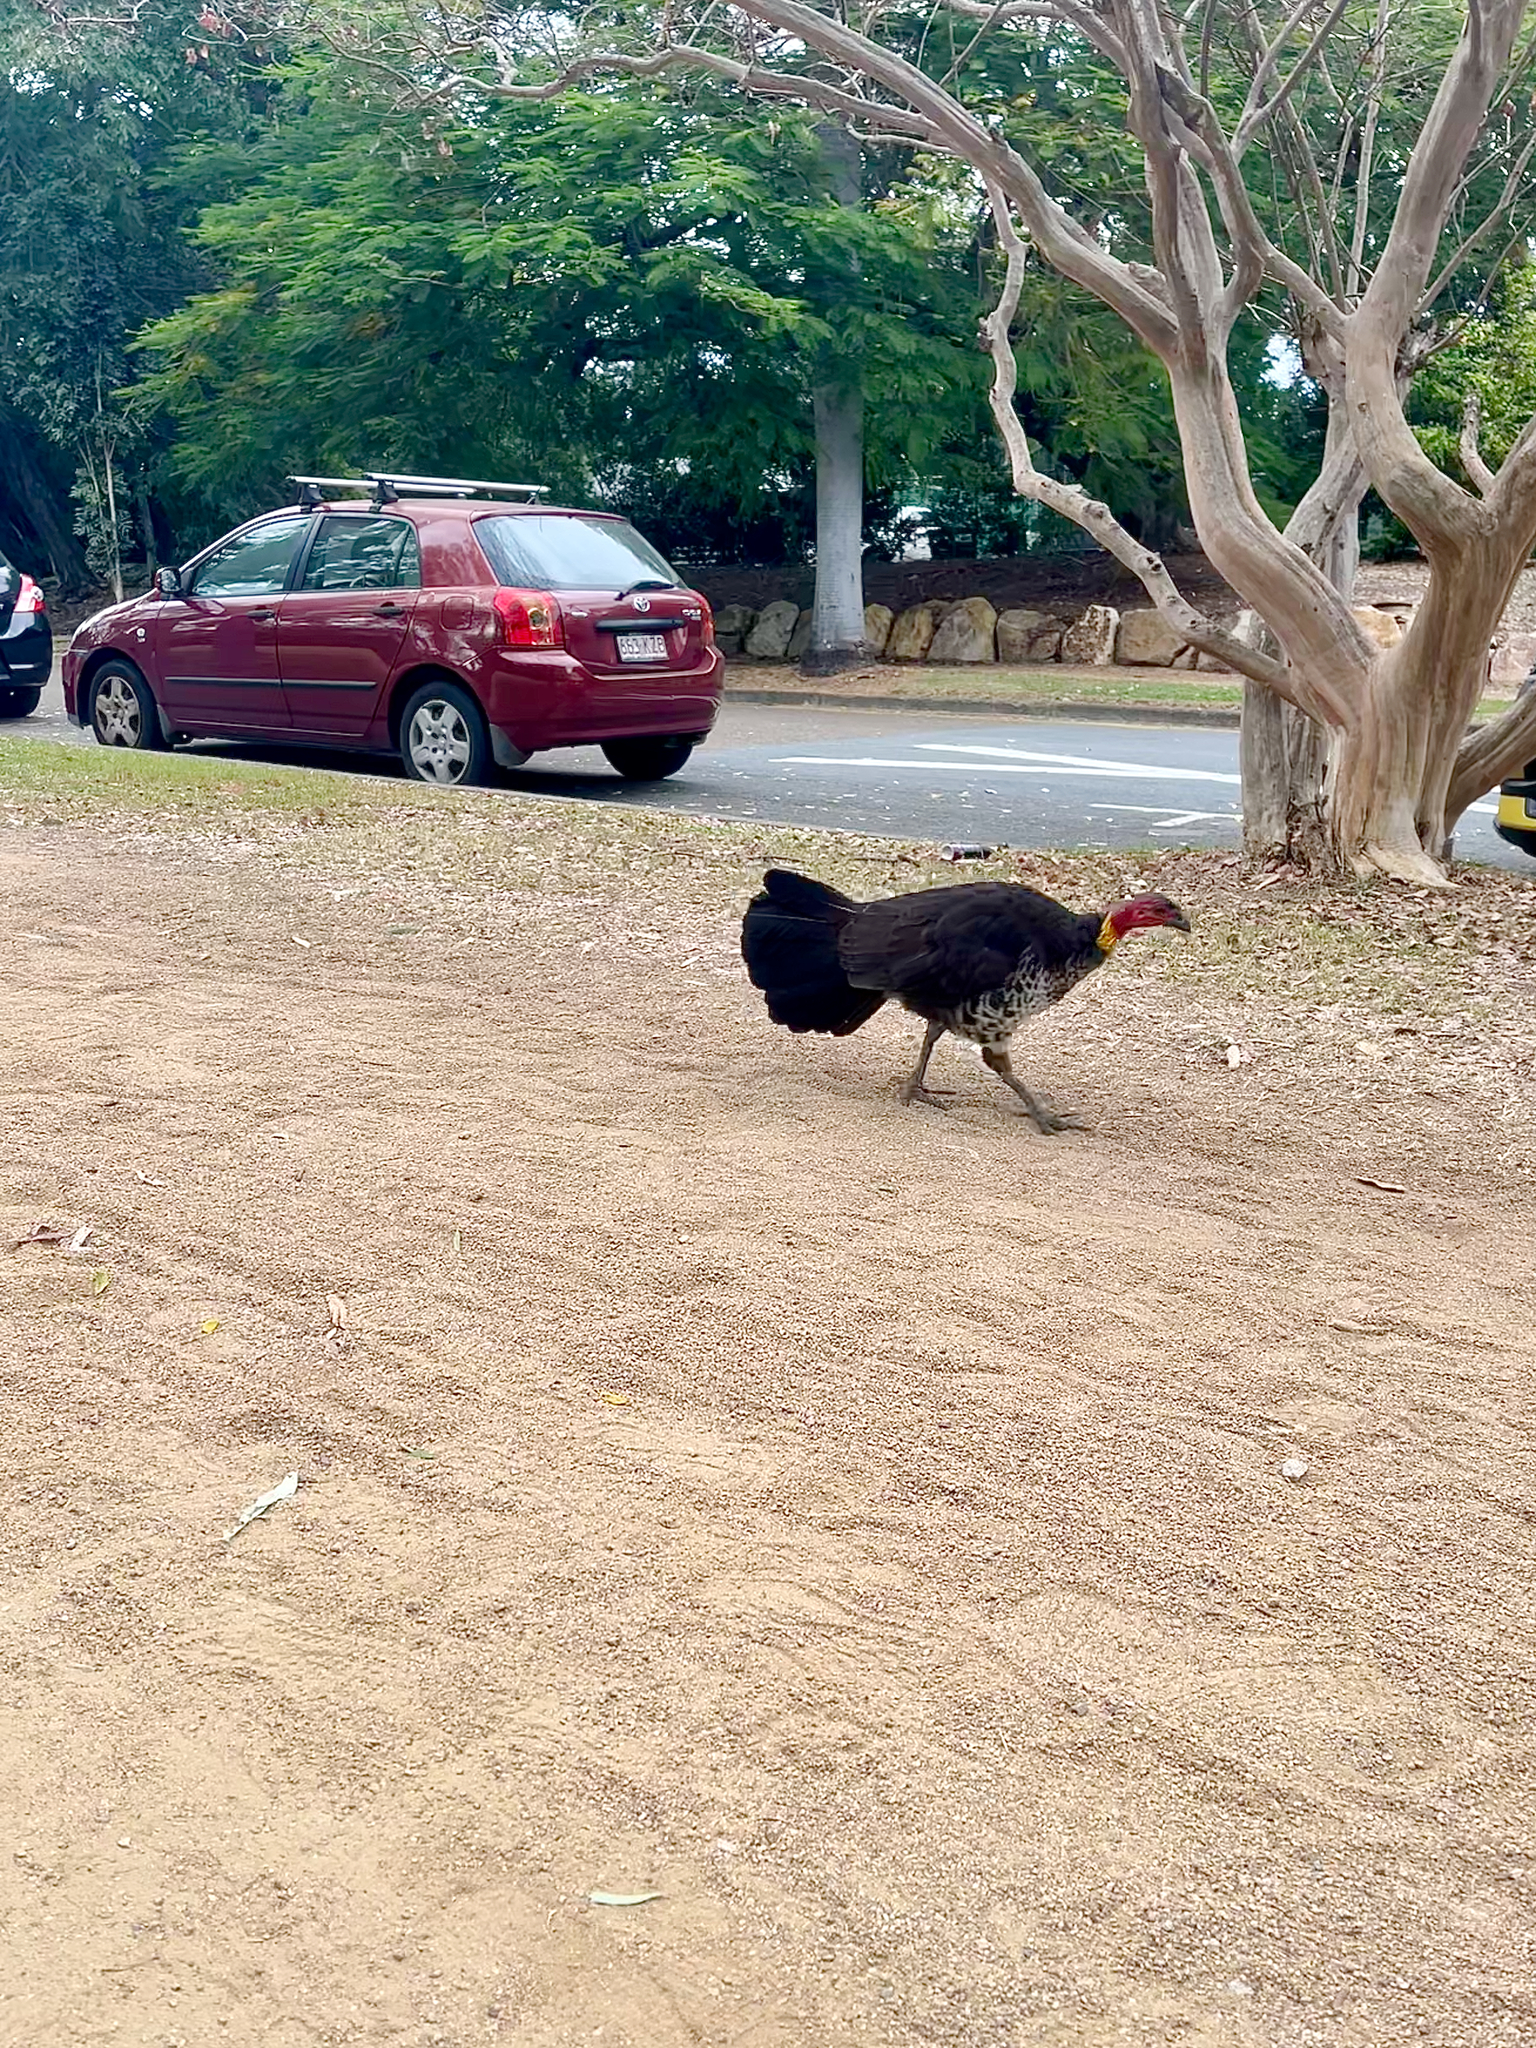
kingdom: Animalia
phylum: Chordata
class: Aves
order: Galliformes
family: Megapodiidae
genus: Alectura
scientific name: Alectura lathami
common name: Australian brushturkey
